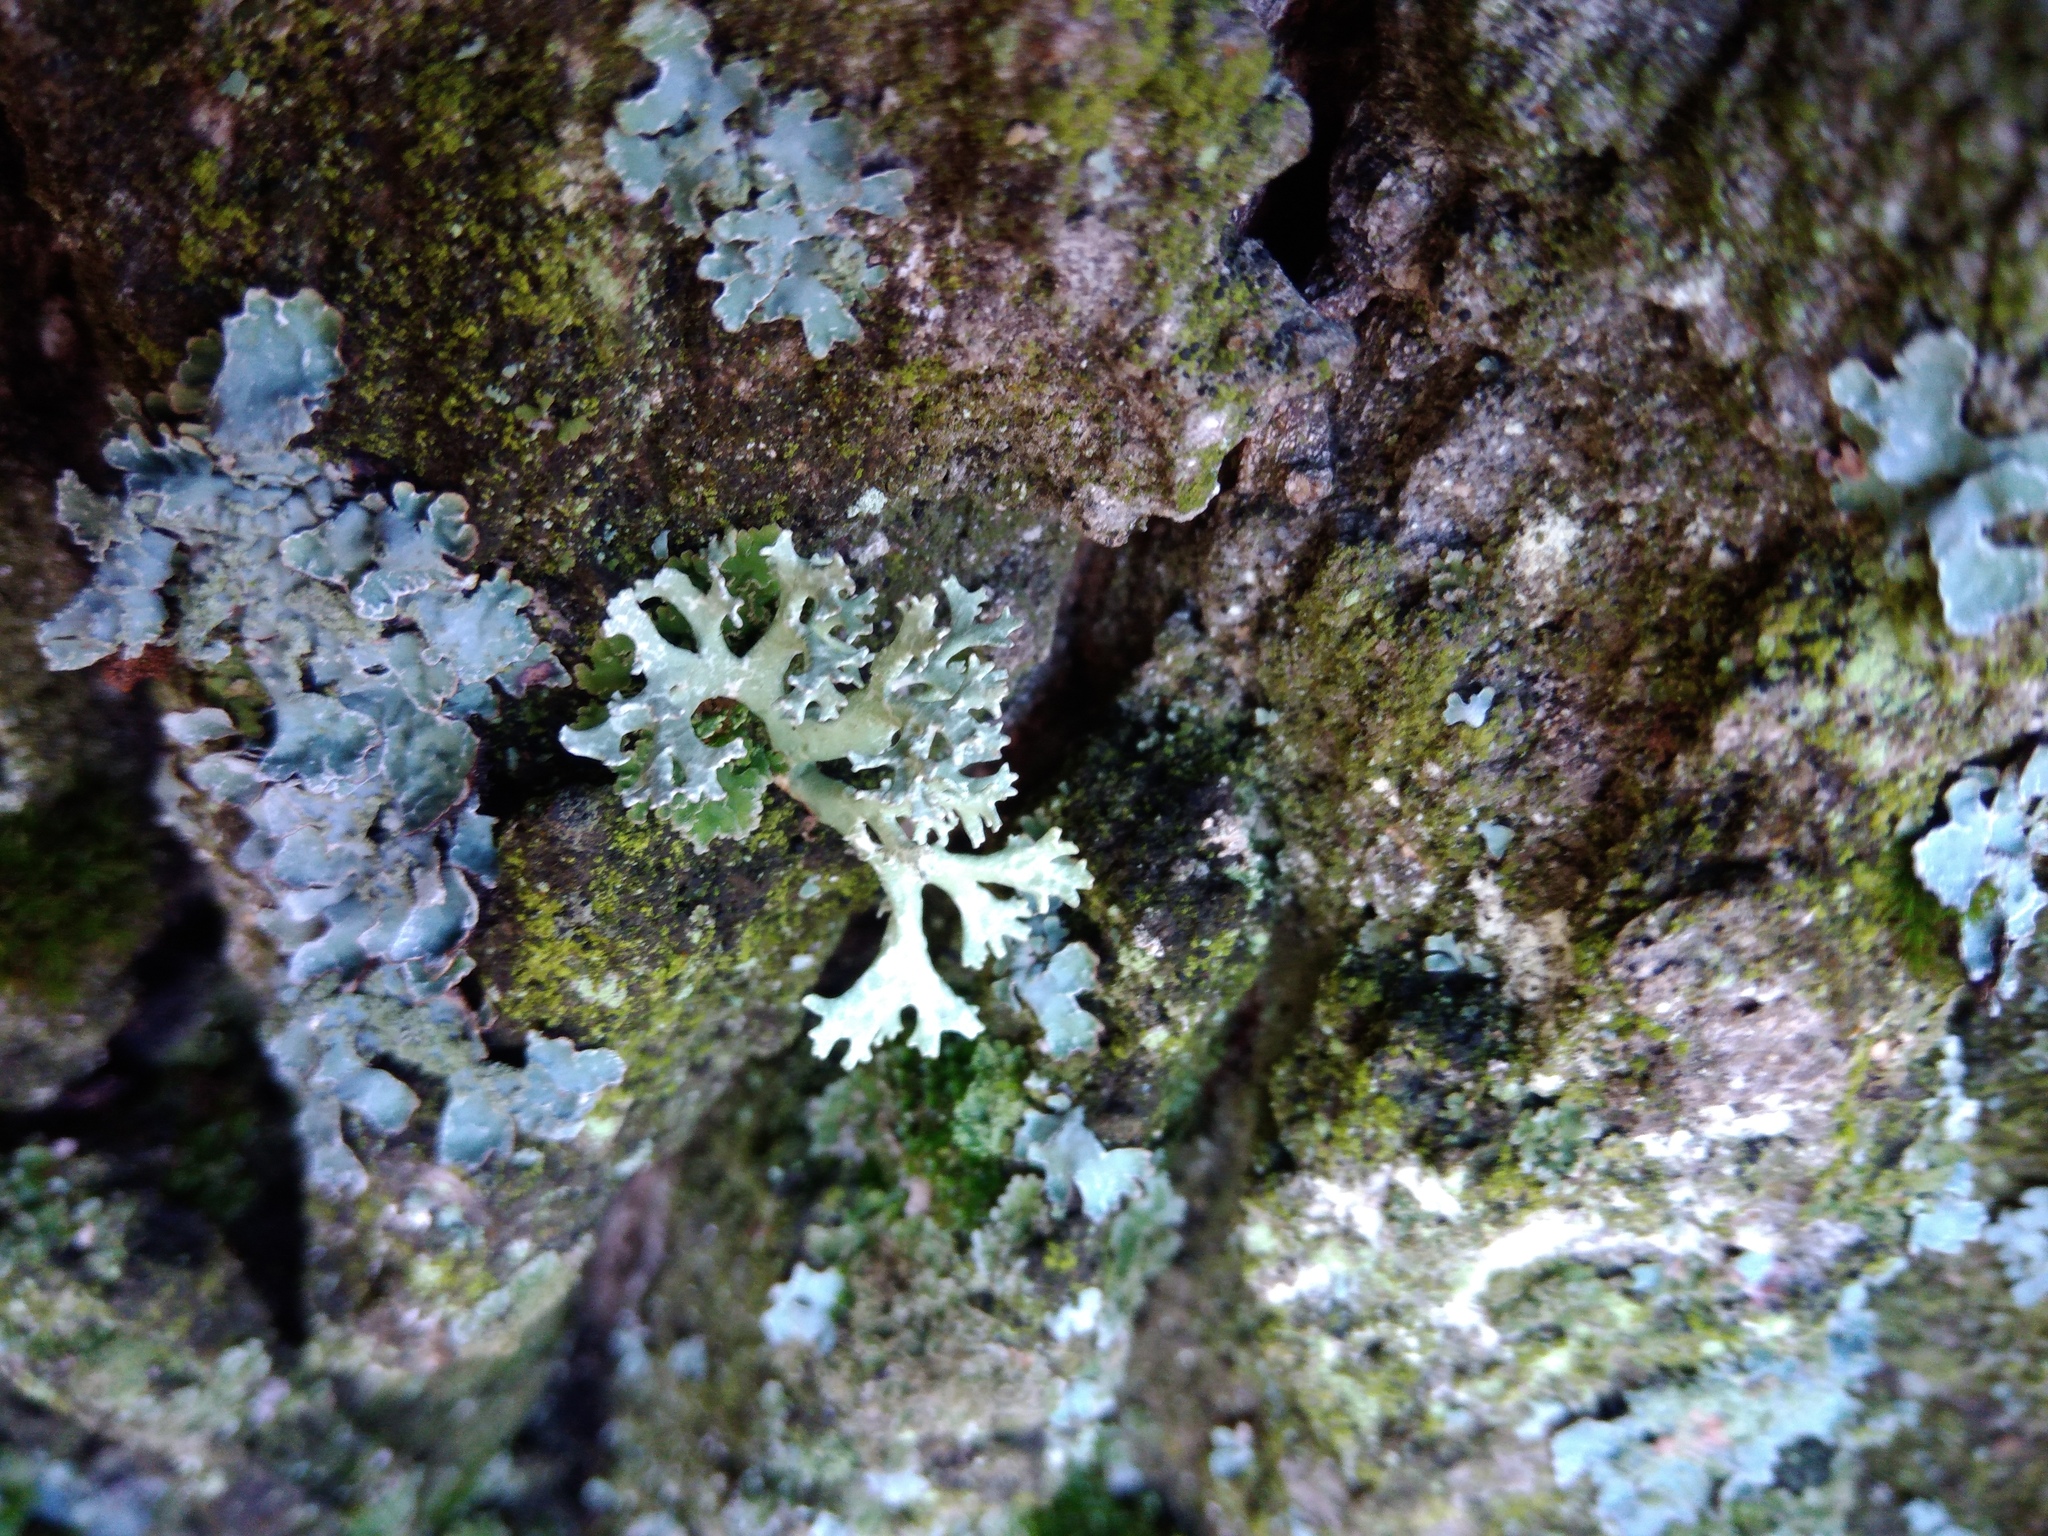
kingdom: Fungi
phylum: Ascomycota
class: Lecanoromycetes
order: Lecanorales
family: Parmeliaceae
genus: Evernia
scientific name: Evernia prunastri
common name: Oak moss
